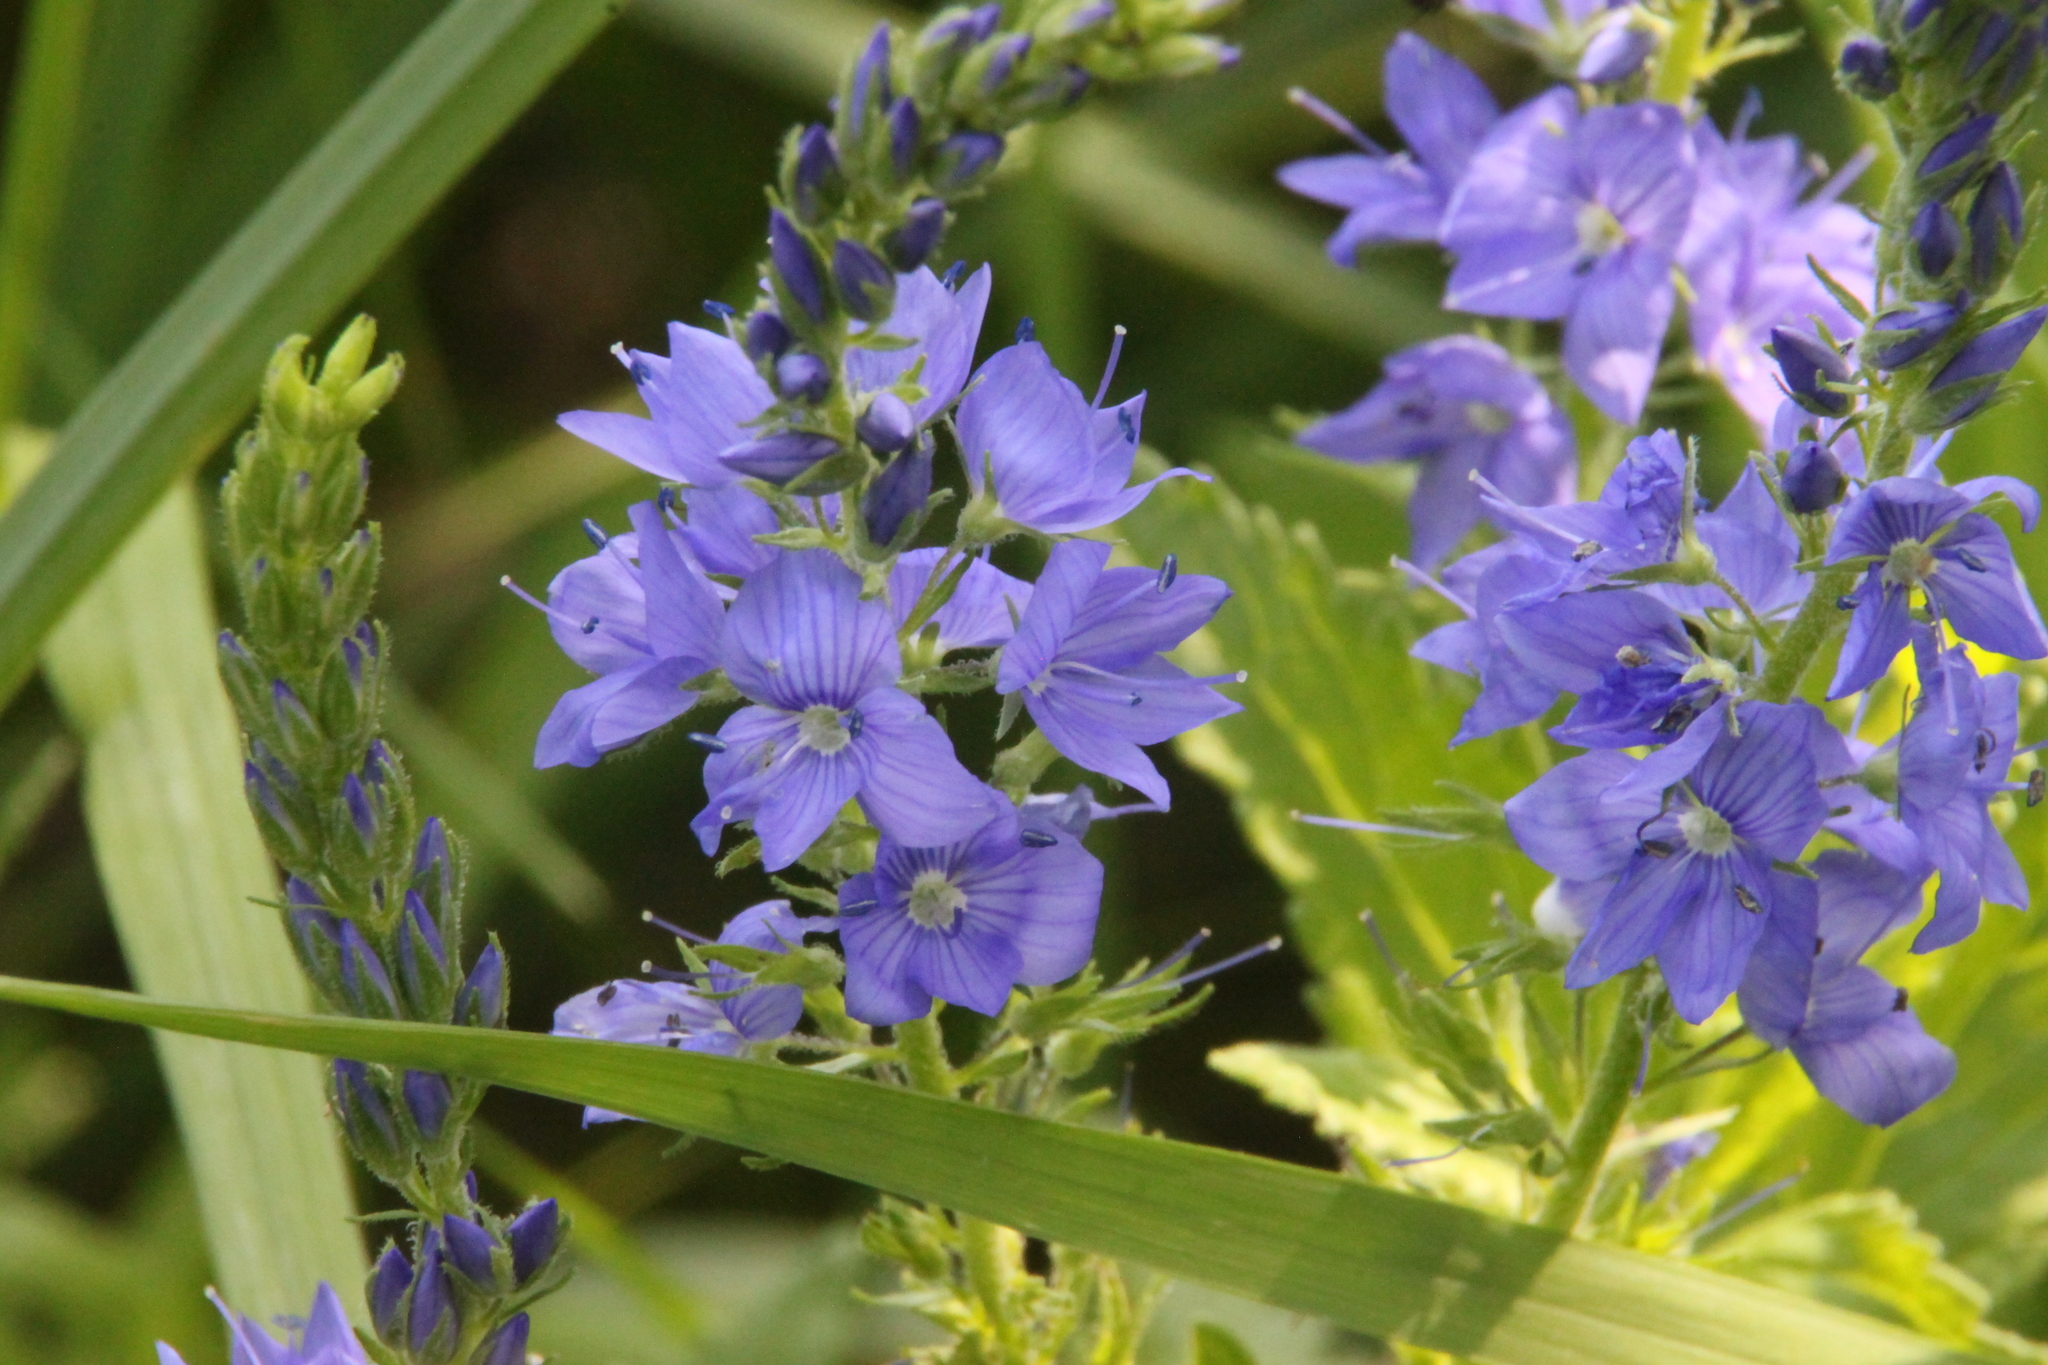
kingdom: Plantae
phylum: Tracheophyta
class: Magnoliopsida
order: Lamiales
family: Plantaginaceae
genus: Veronica
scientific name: Veronica teucrium
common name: Large speedwell
